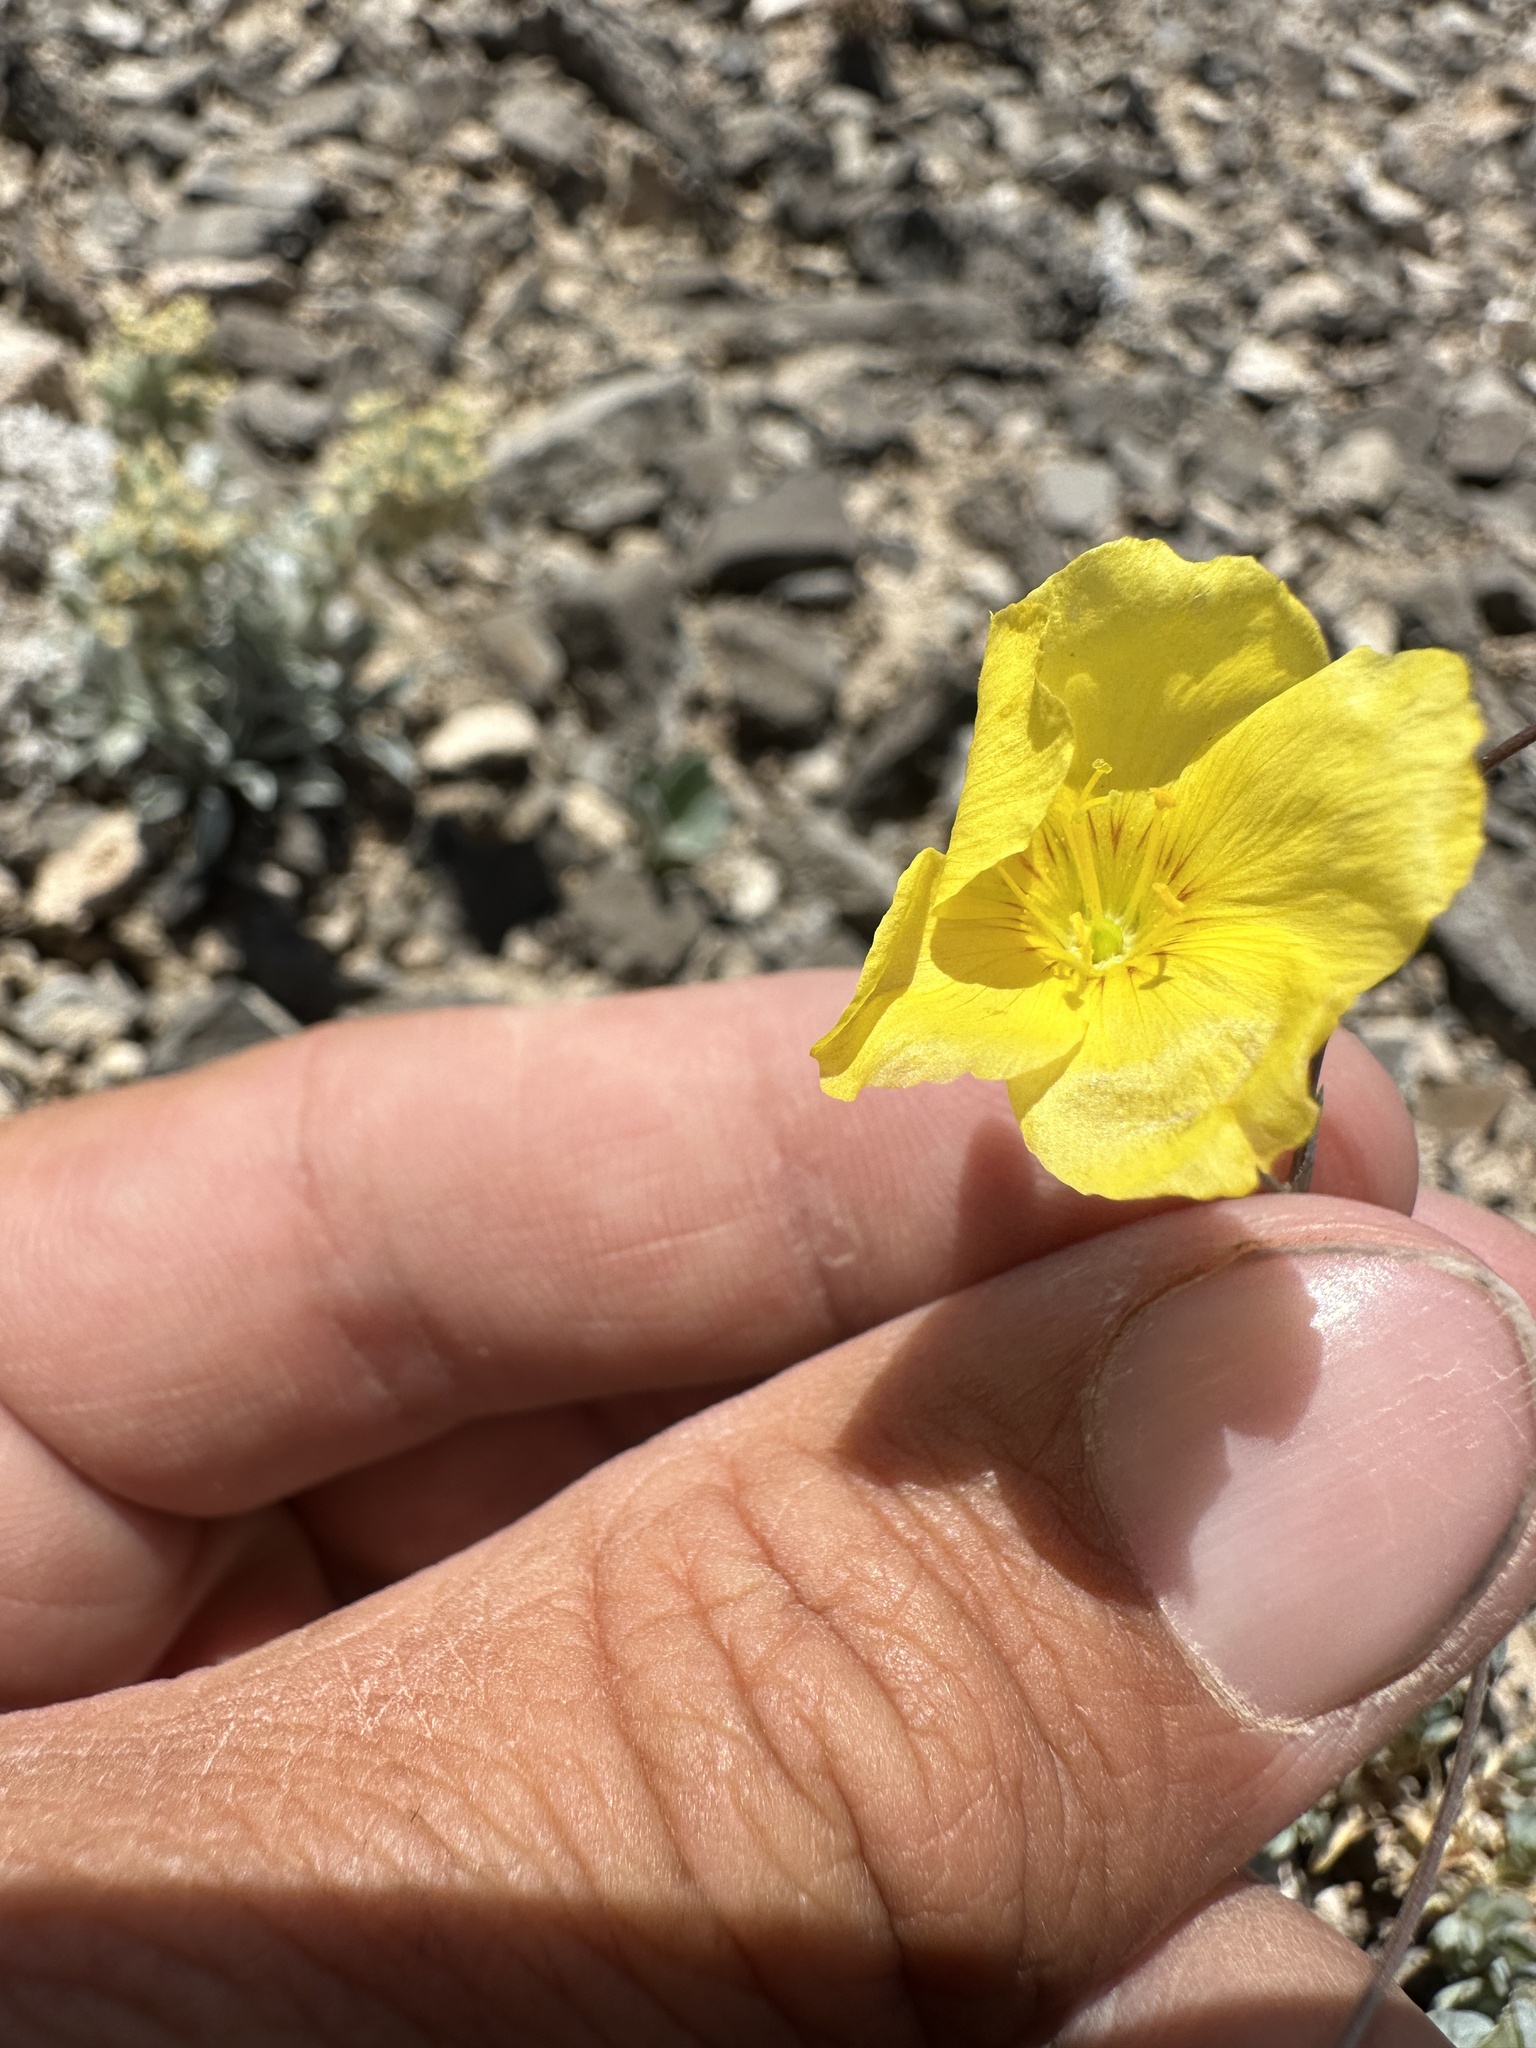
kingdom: Plantae
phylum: Tracheophyta
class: Magnoliopsida
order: Malpighiales
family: Linaceae
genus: Linum
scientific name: Linum subteres
